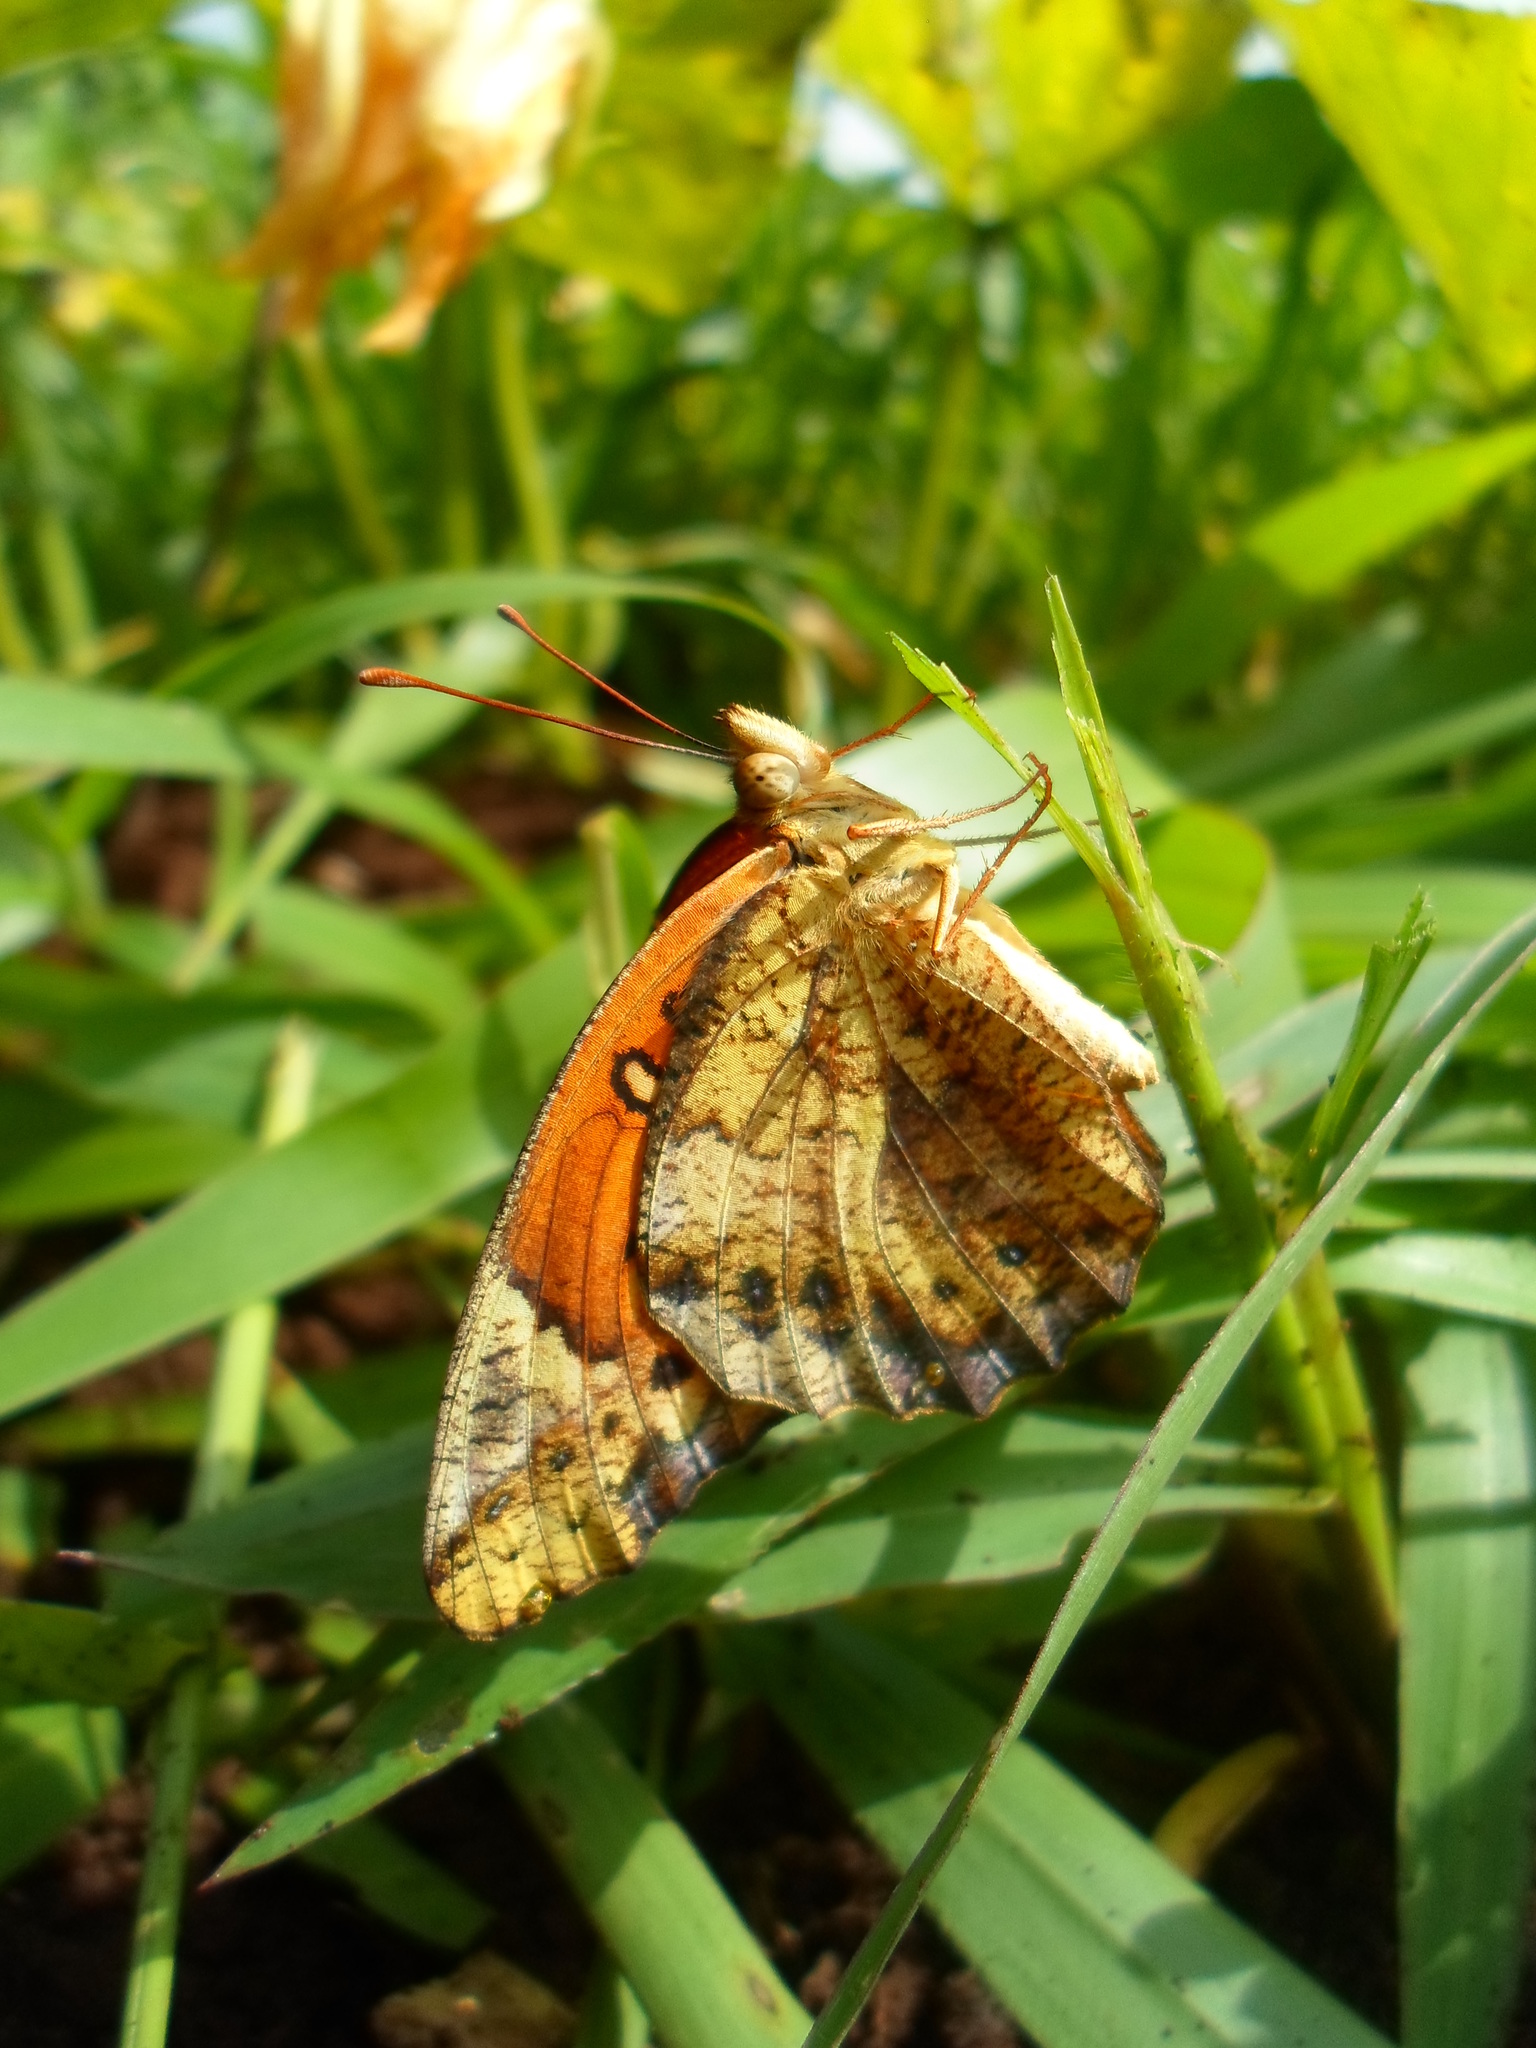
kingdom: Animalia
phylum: Arthropoda
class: Insecta
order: Lepidoptera
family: Nymphalidae
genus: Euptoieta
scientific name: Euptoieta hegesia
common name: Mexican fritillary
